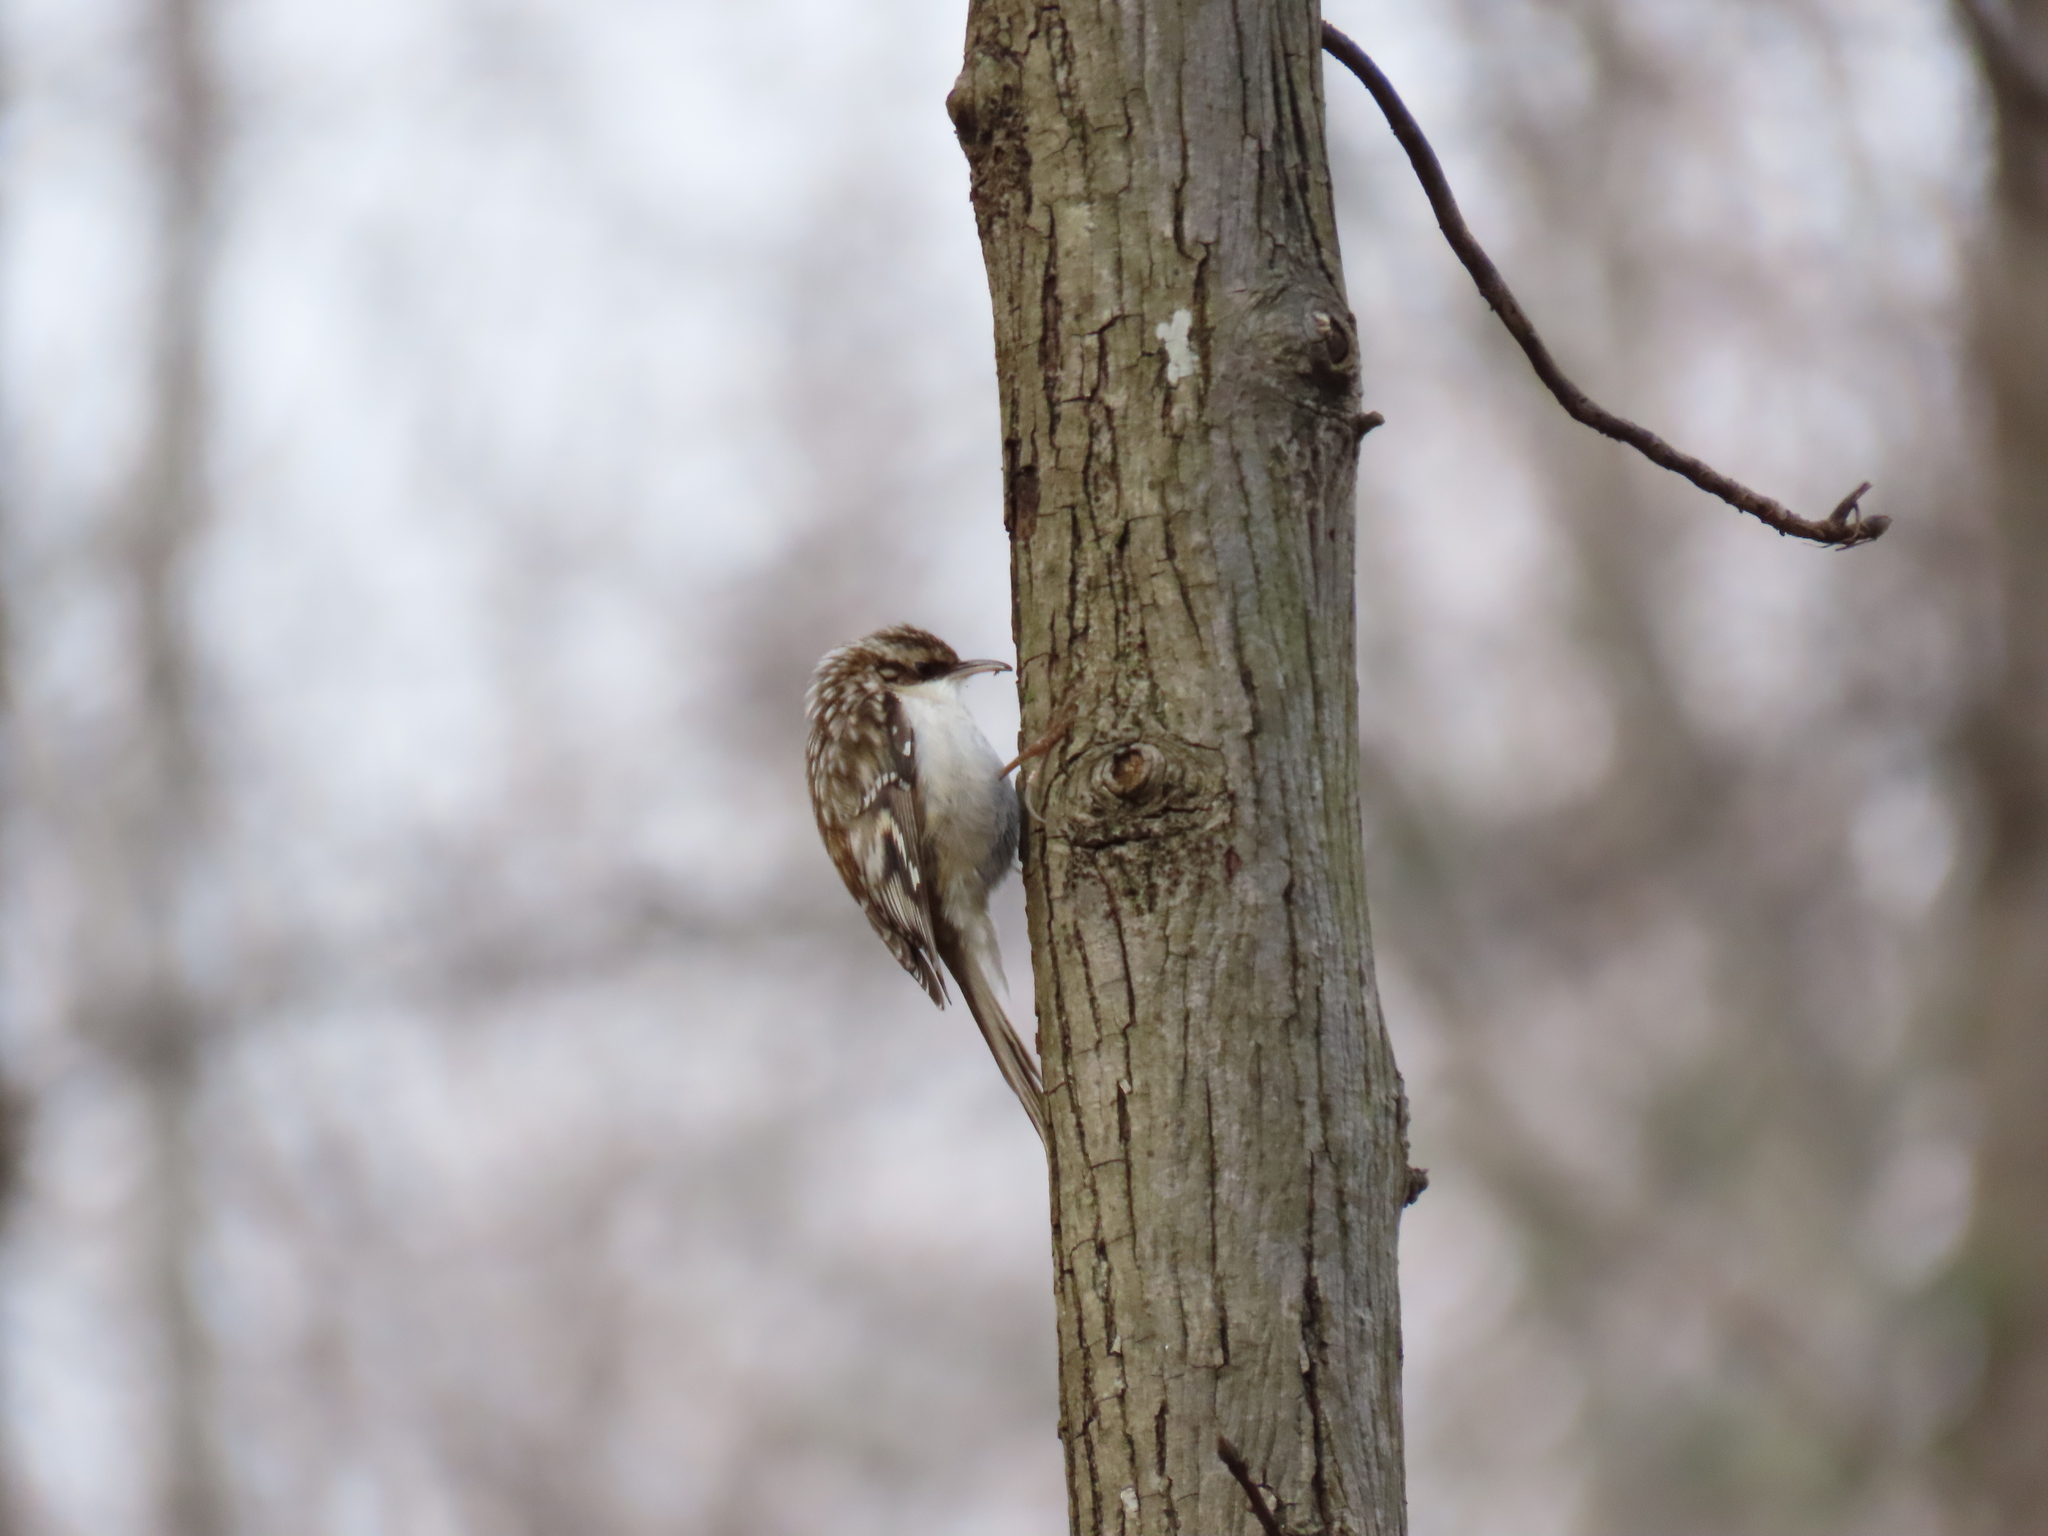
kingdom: Animalia
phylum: Chordata
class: Aves
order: Passeriformes
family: Certhiidae
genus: Certhia
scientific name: Certhia americana
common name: Brown creeper
